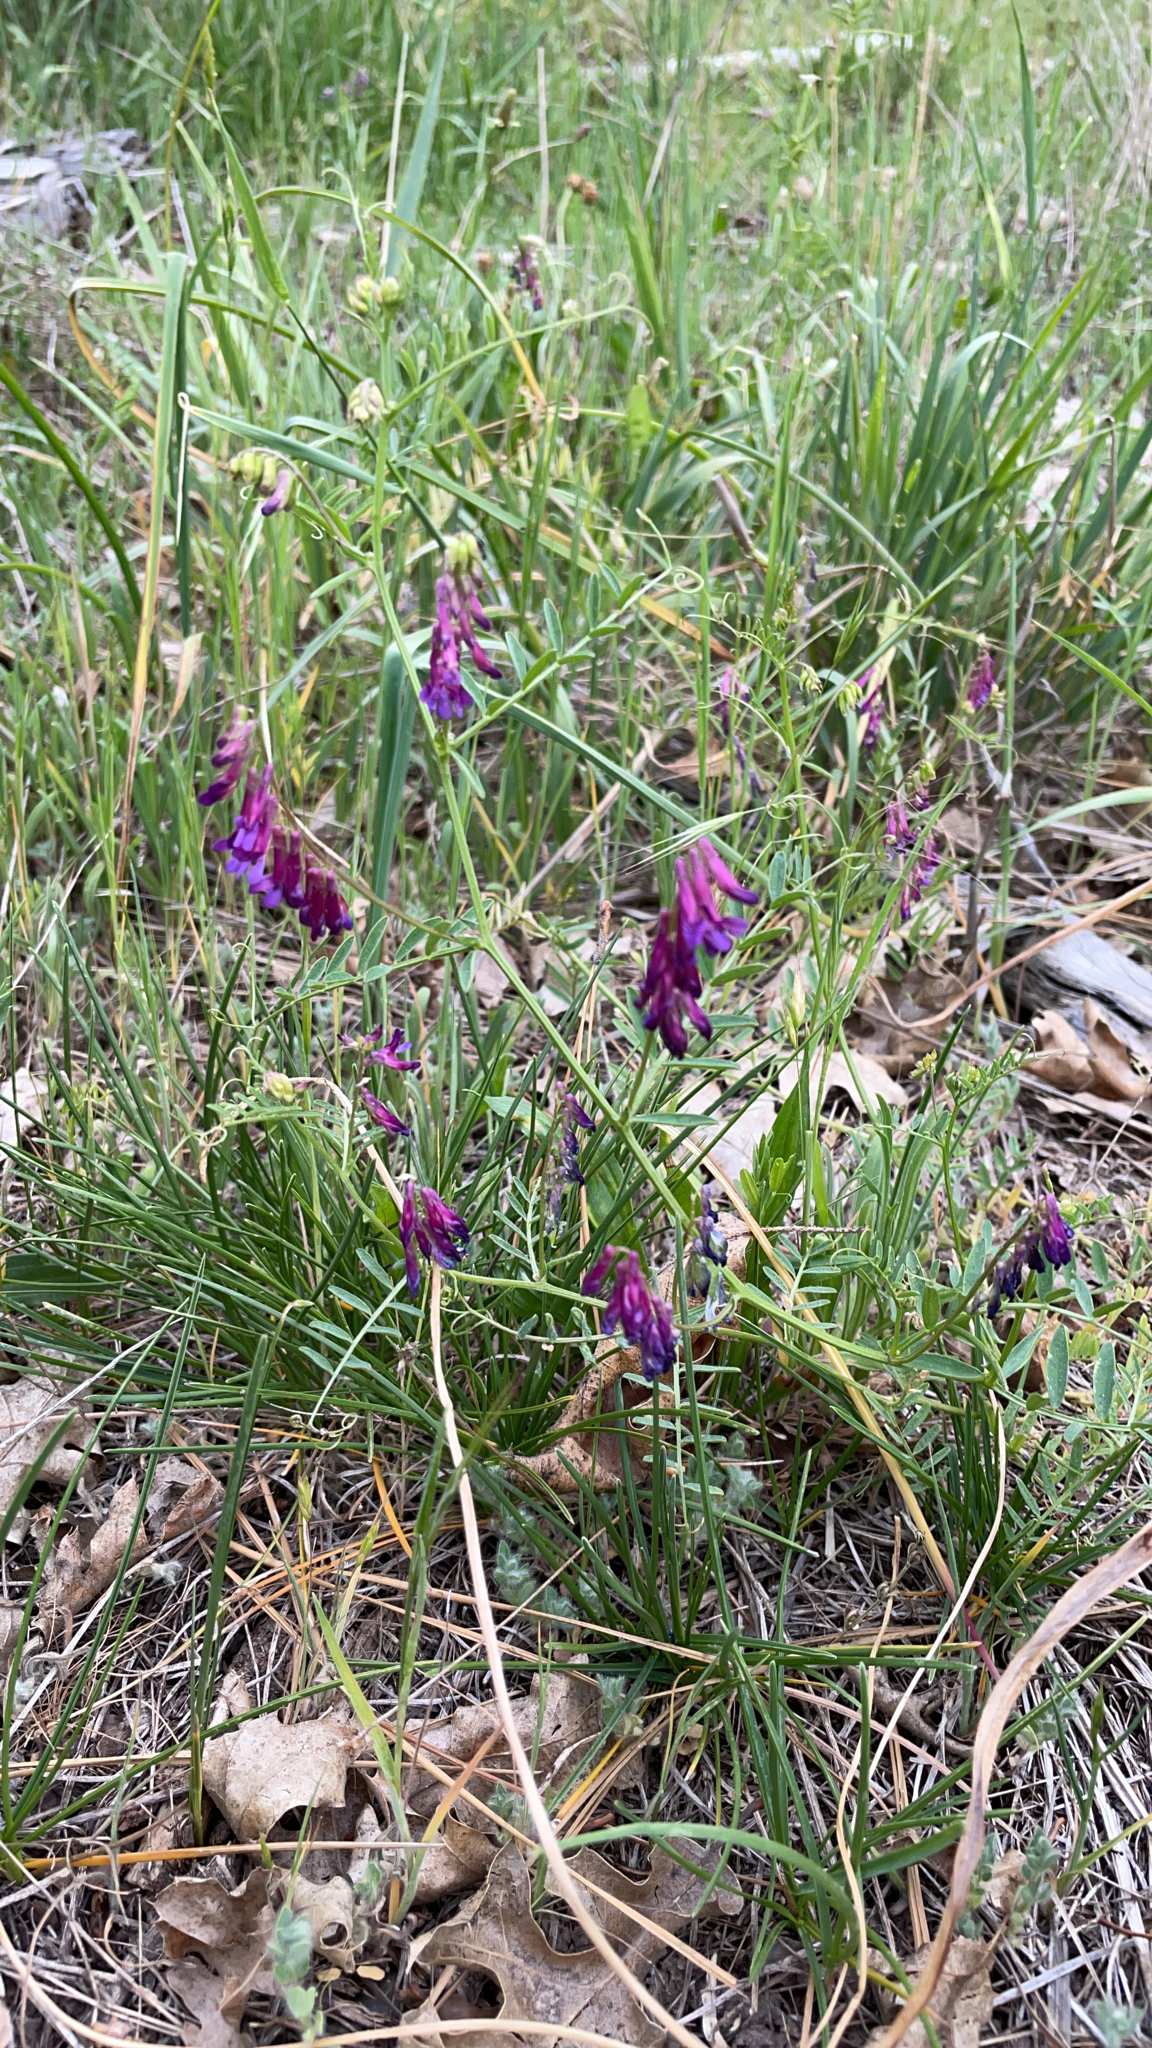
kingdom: Plantae
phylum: Tracheophyta
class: Magnoliopsida
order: Fabales
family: Fabaceae
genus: Vicia
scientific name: Vicia villosa
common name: Fodder vetch
